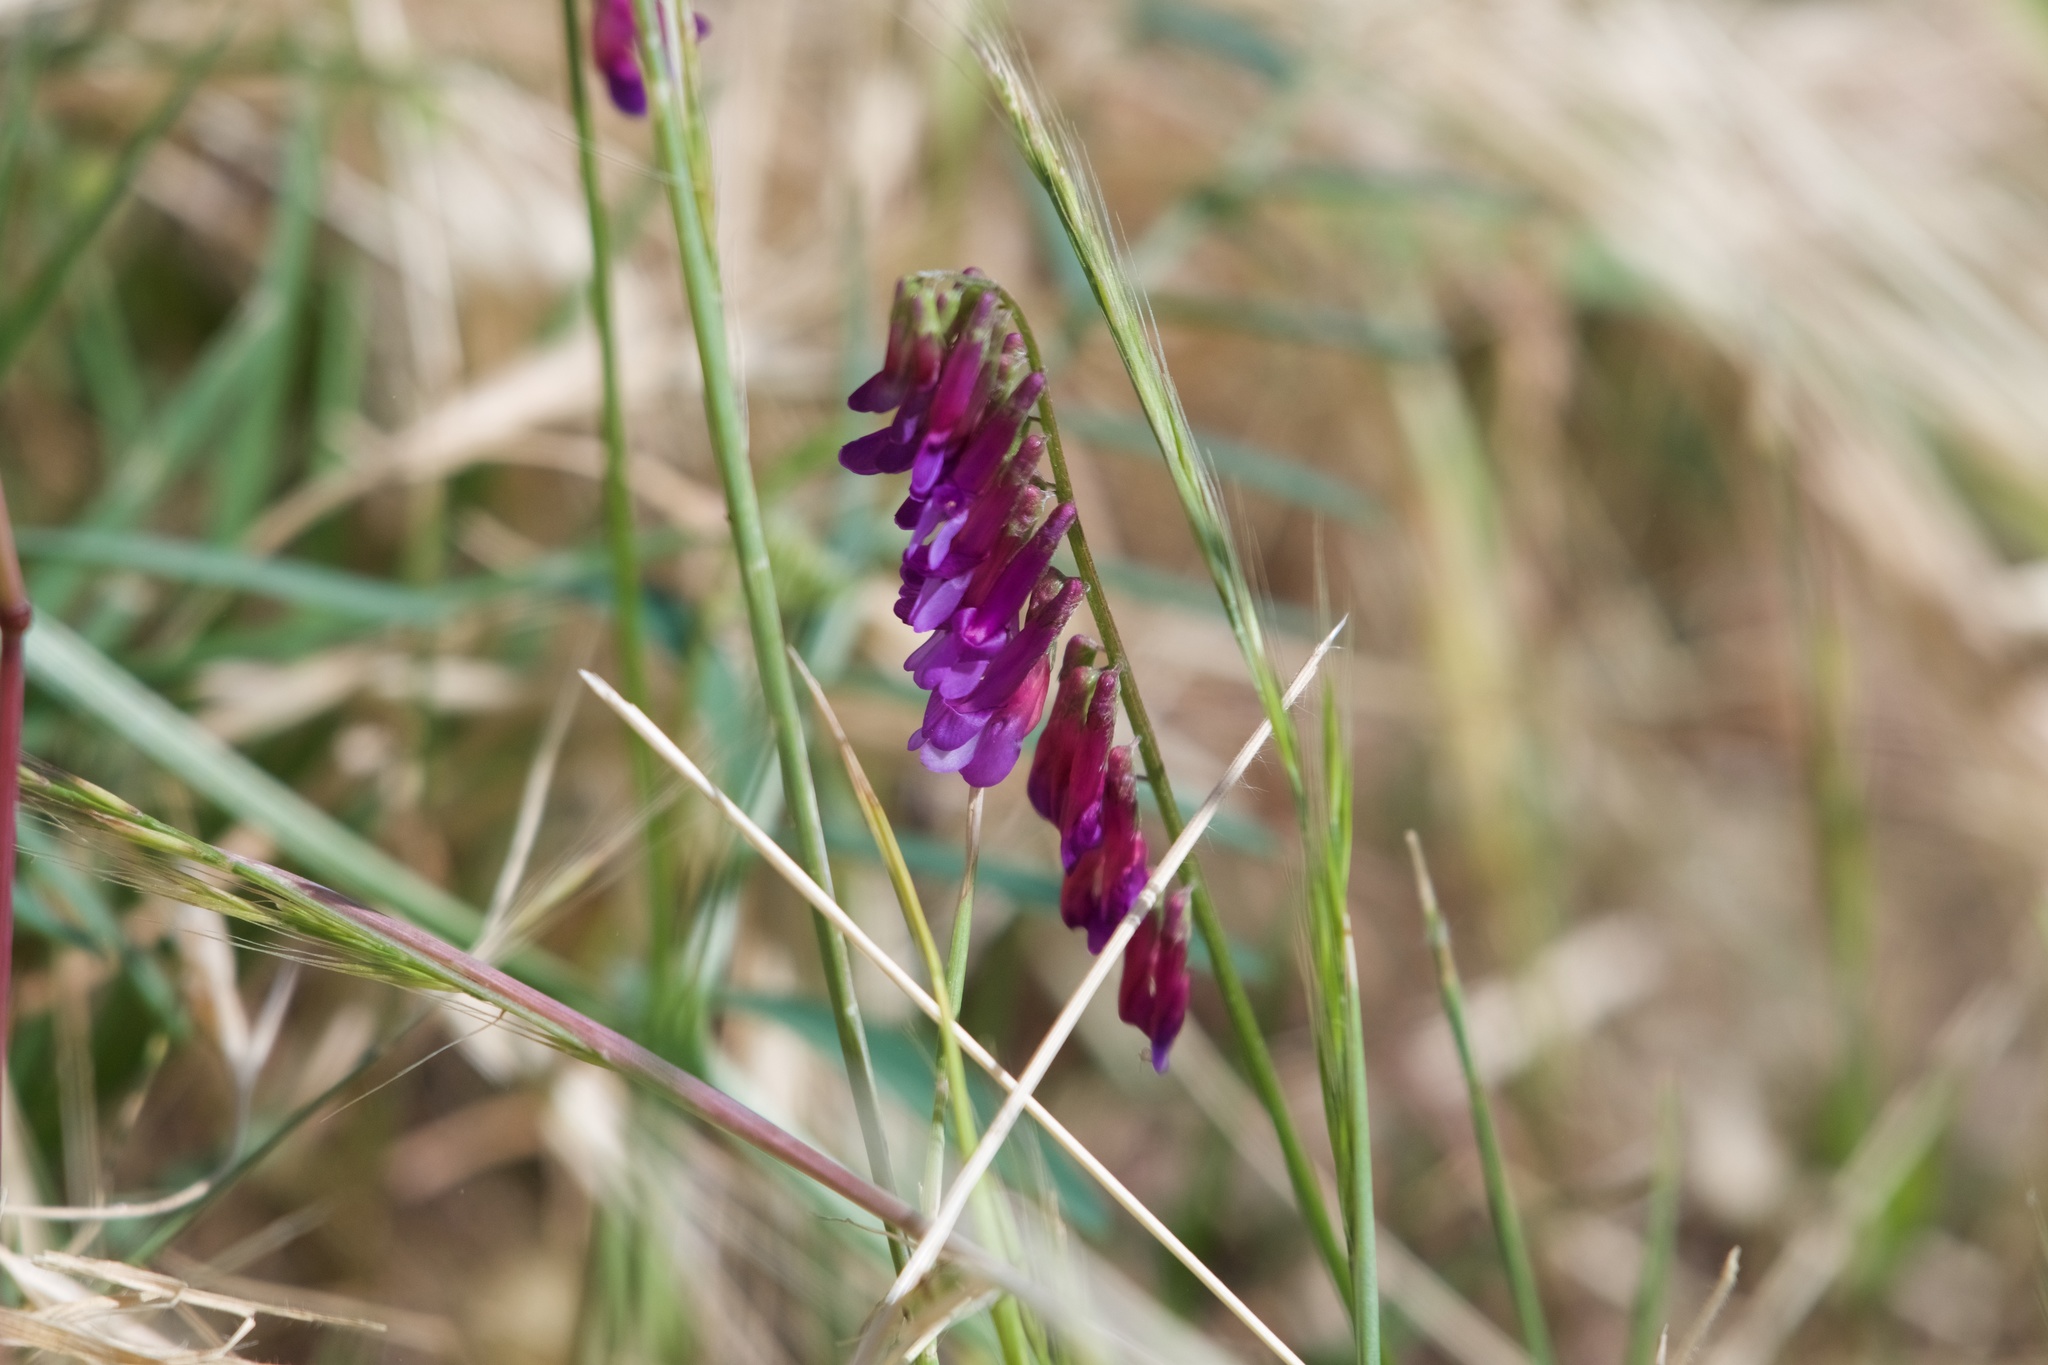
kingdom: Plantae
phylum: Tracheophyta
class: Magnoliopsida
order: Fabales
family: Fabaceae
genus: Vicia
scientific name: Vicia villosa
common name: Fodder vetch
